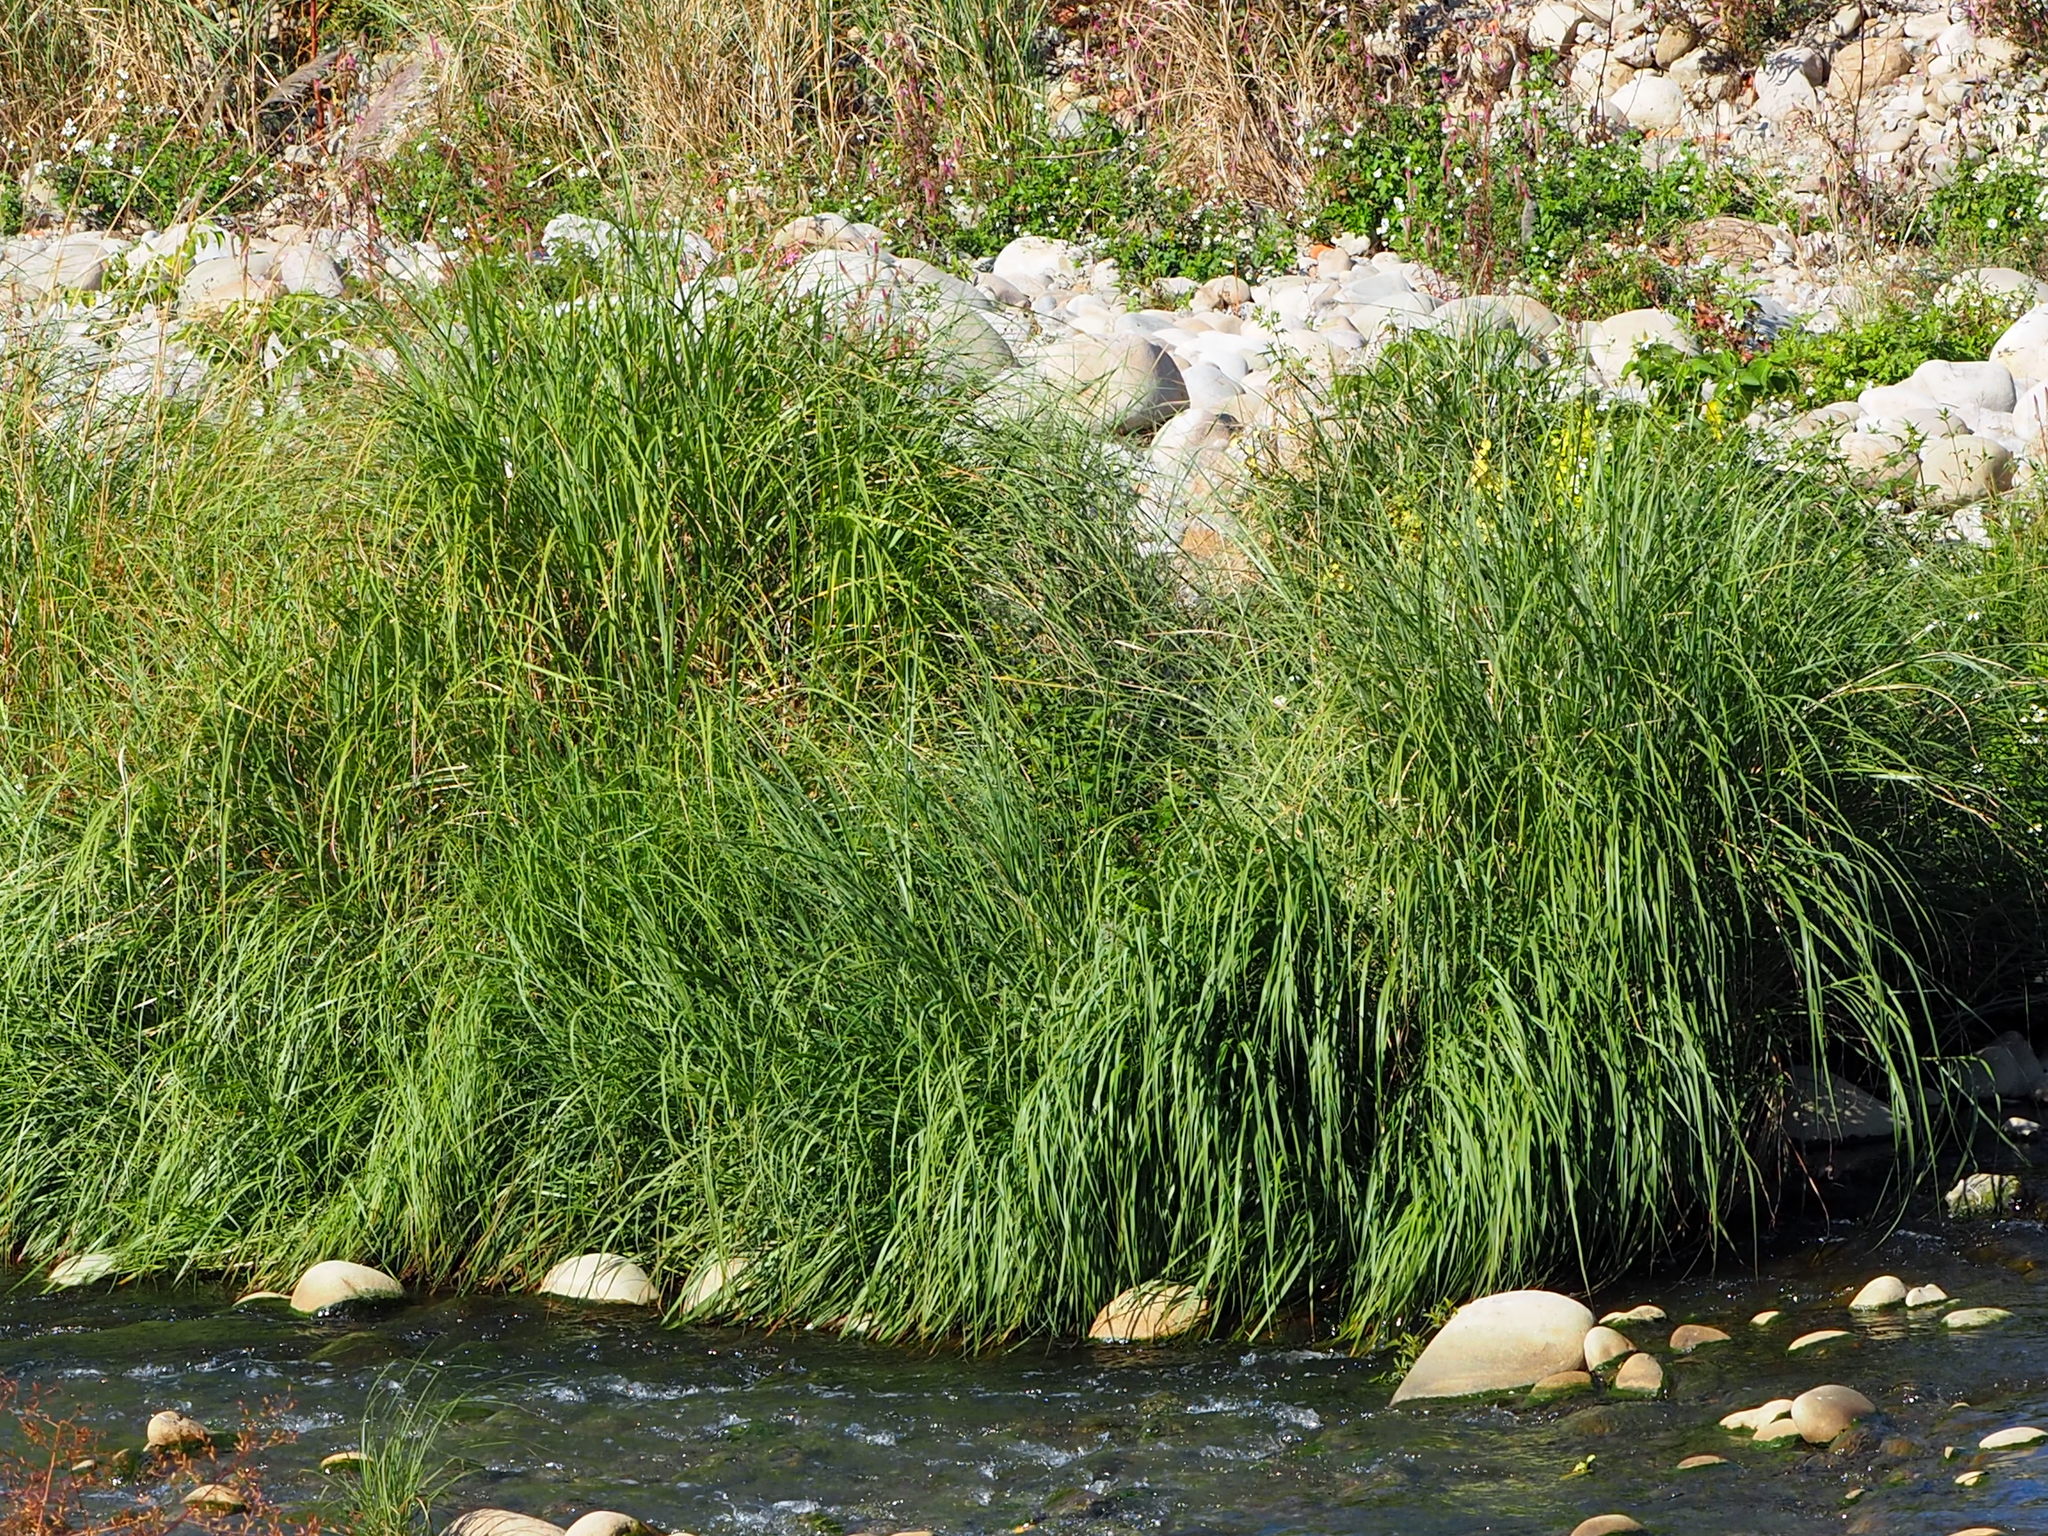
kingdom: Plantae
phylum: Tracheophyta
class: Liliopsida
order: Poales
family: Poaceae
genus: Saccharum
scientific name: Saccharum spontaneum
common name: Wild sugarcane
